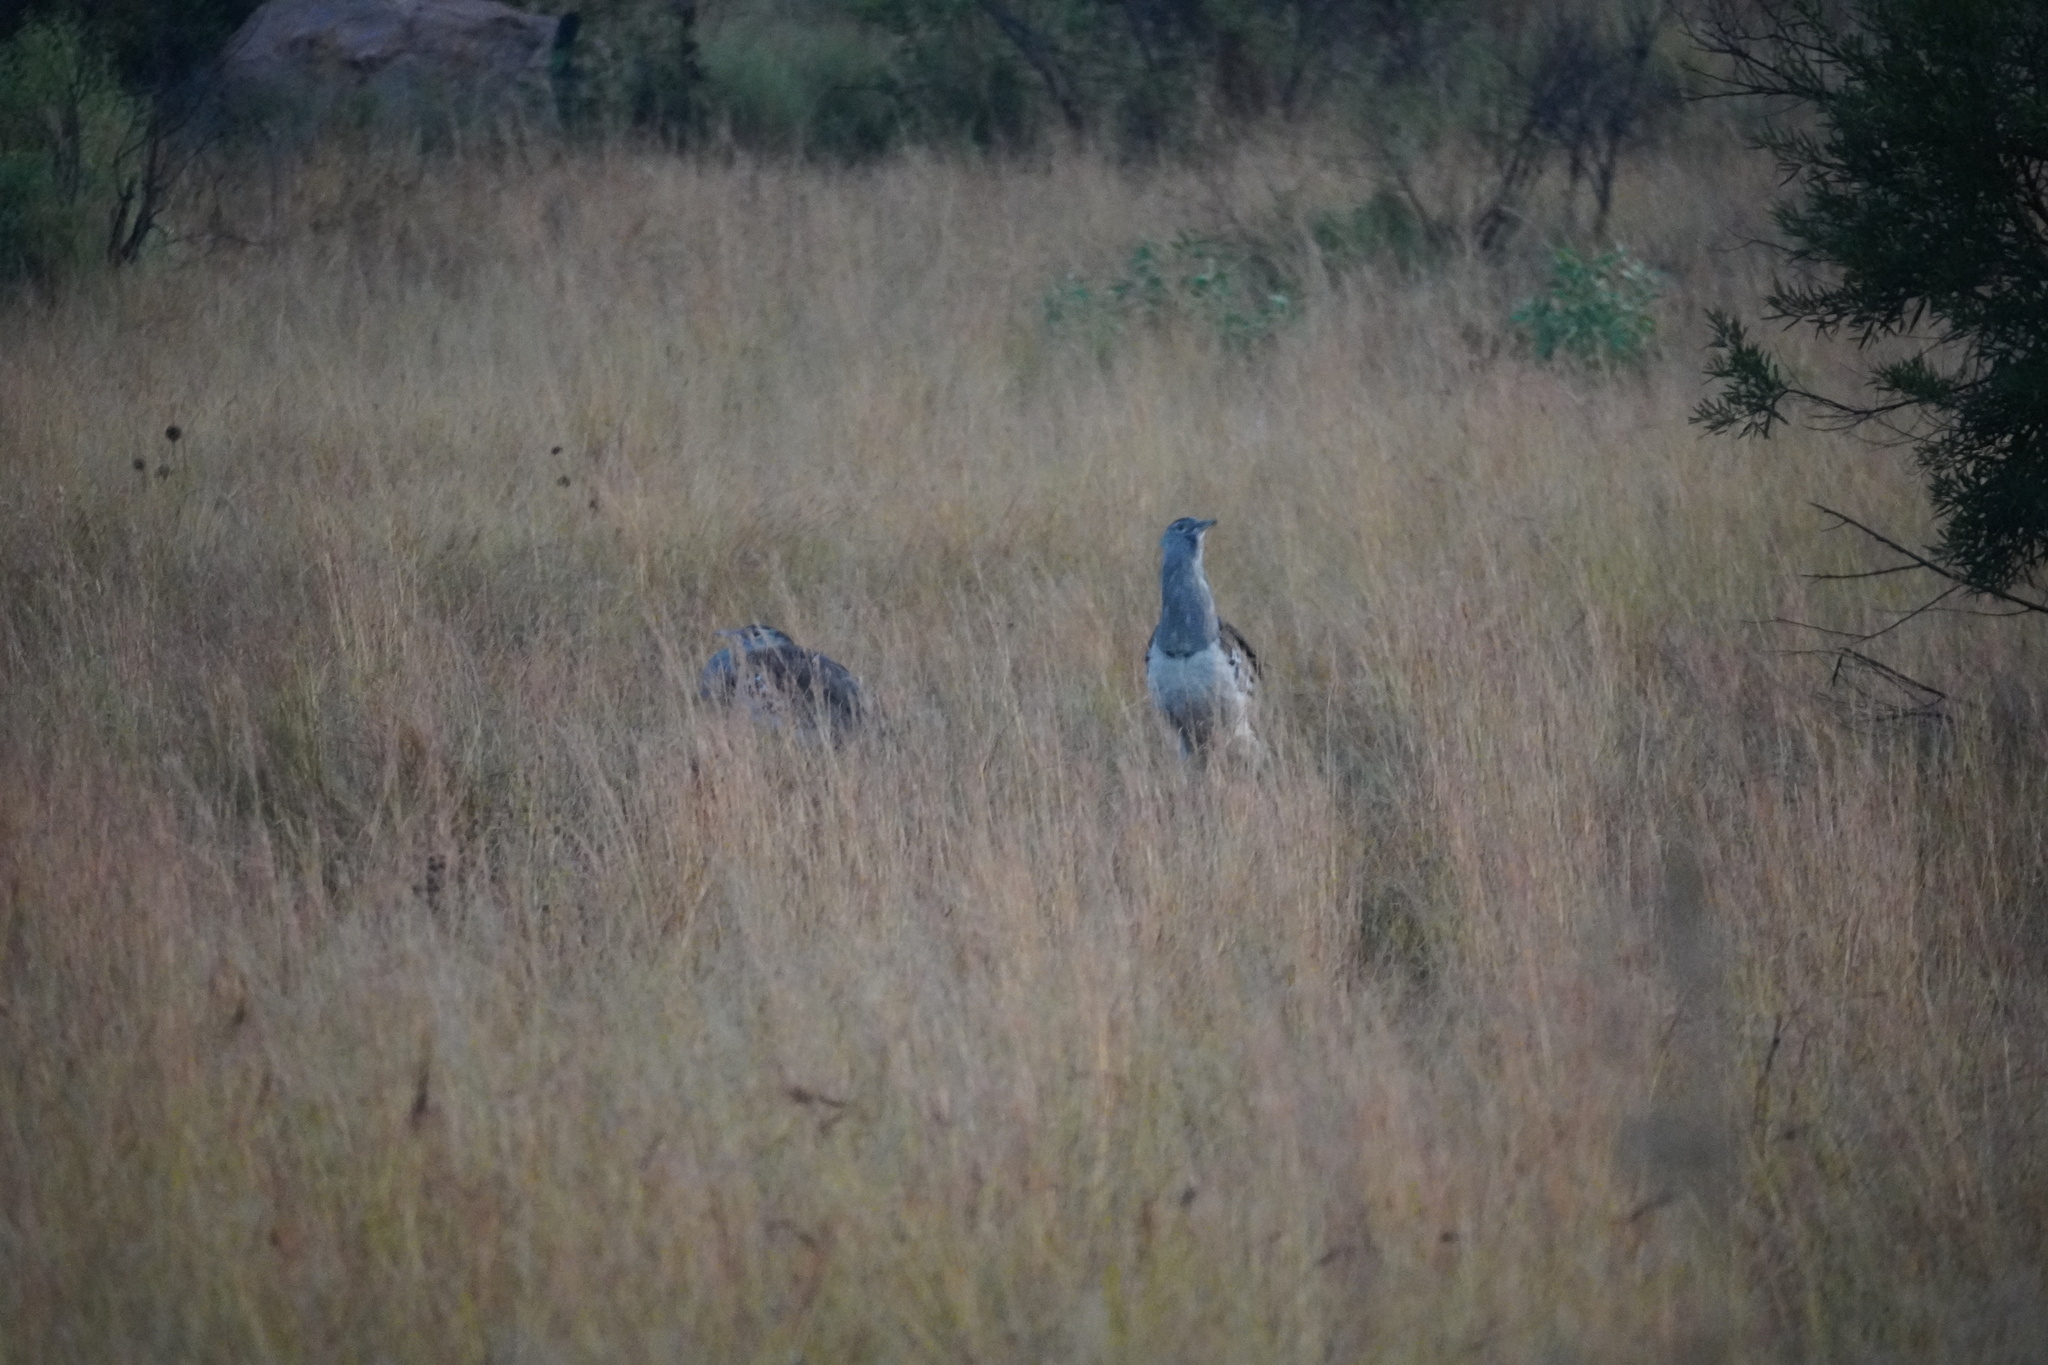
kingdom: Animalia
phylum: Chordata
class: Aves
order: Otidiformes
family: Otididae
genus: Ardeotis
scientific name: Ardeotis kori
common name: Kori bustard
